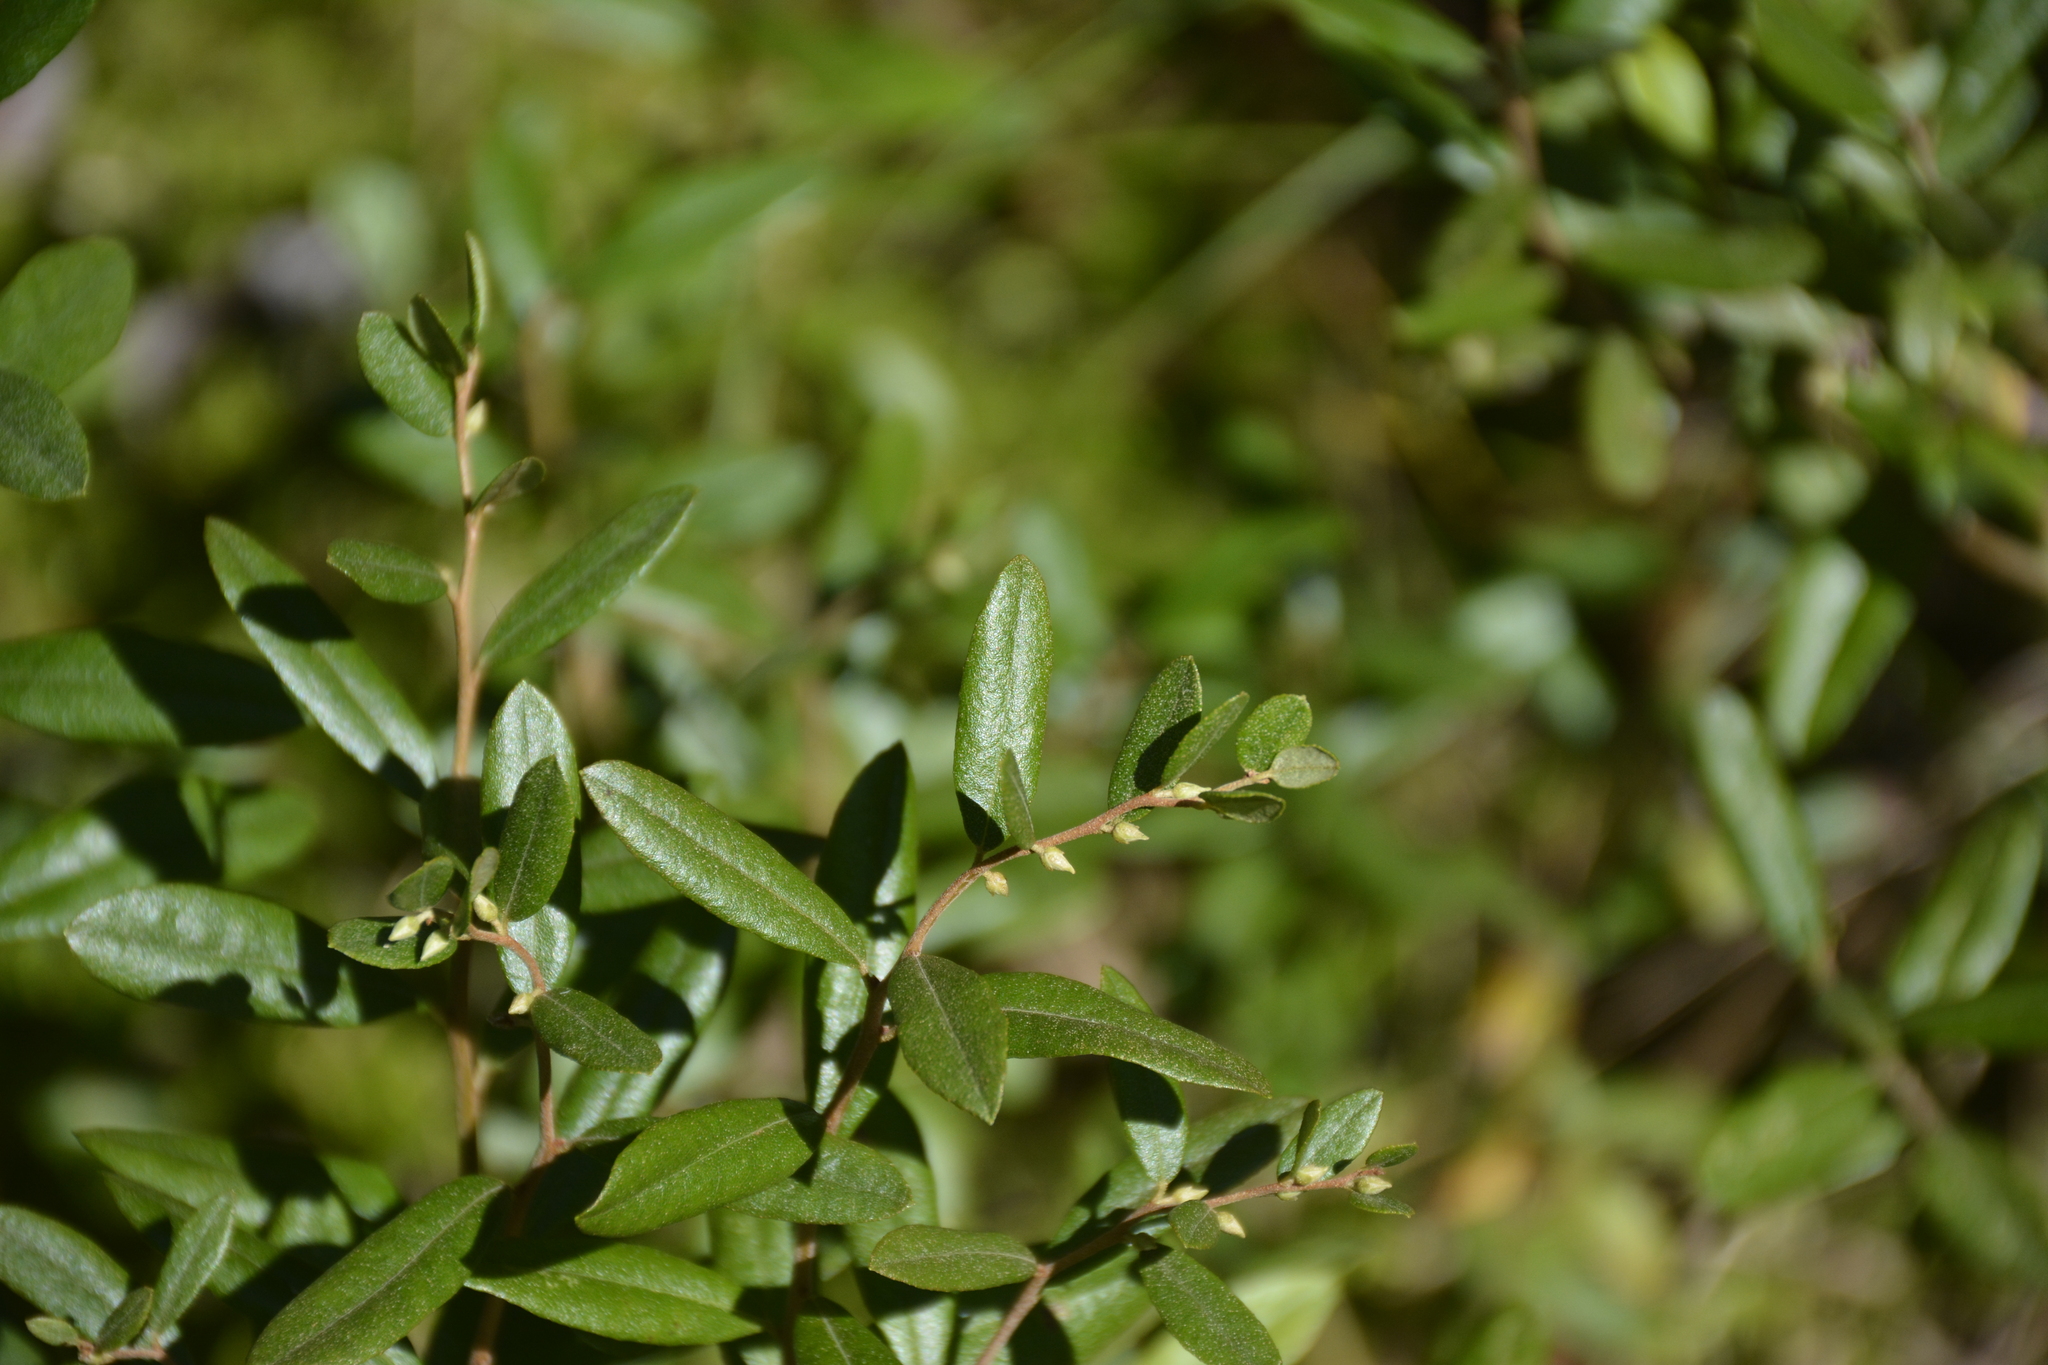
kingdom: Plantae
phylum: Tracheophyta
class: Magnoliopsida
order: Ericales
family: Ericaceae
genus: Chamaedaphne
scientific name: Chamaedaphne calyculata
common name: Leatherleaf
